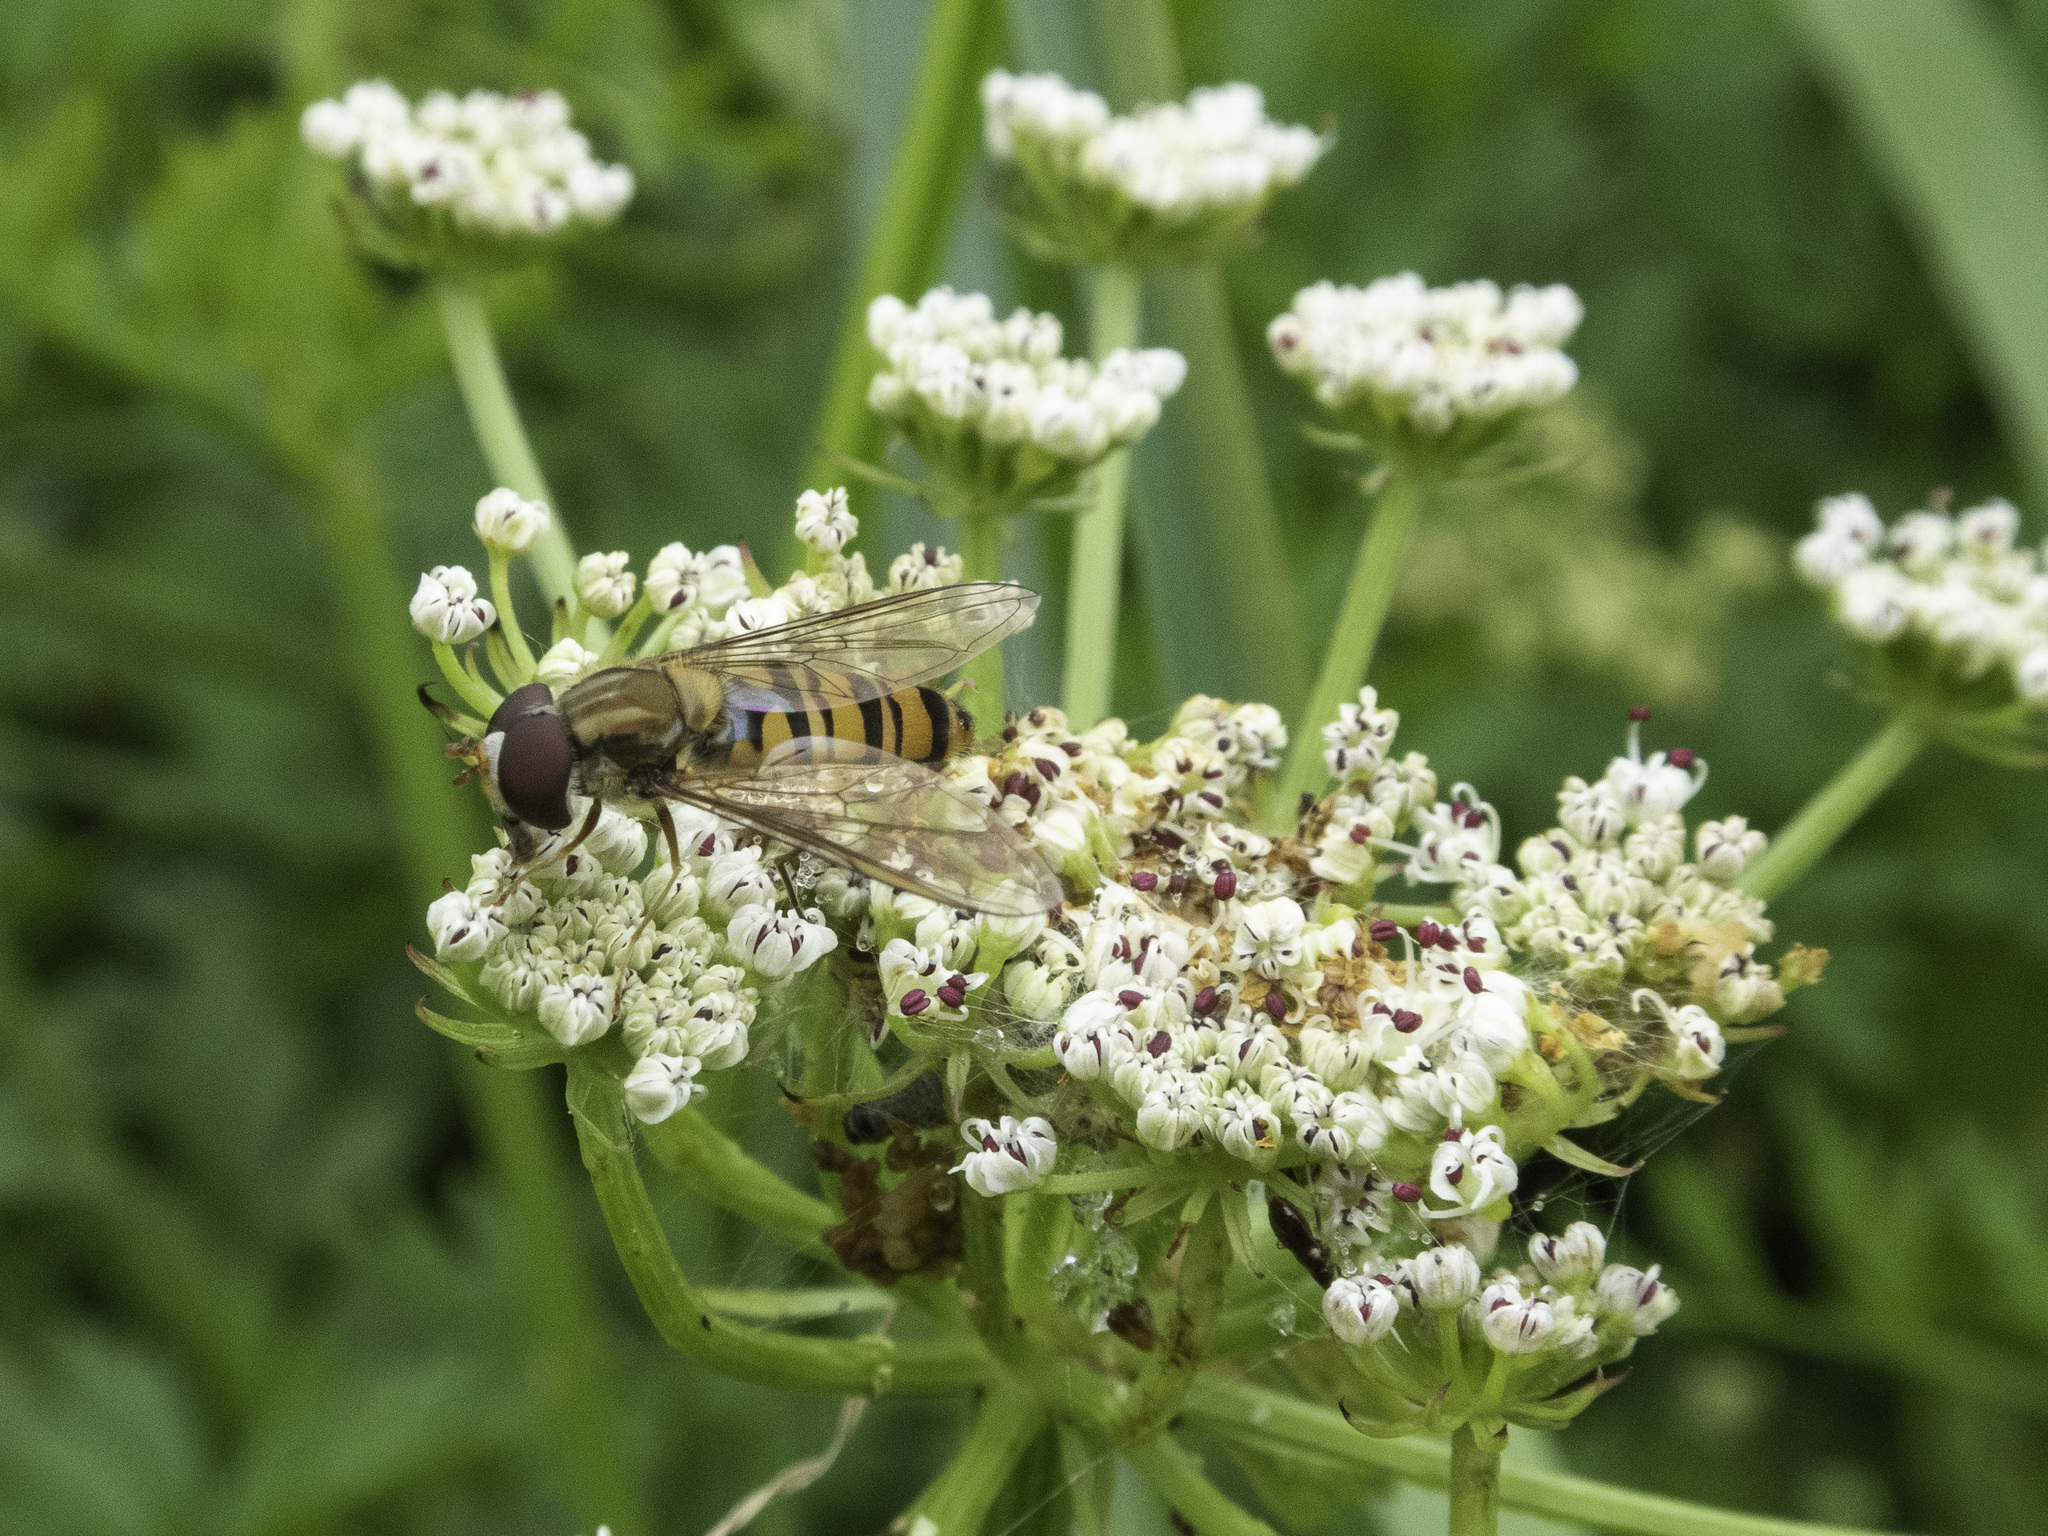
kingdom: Animalia
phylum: Arthropoda
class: Insecta
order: Diptera
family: Syrphidae
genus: Episyrphus
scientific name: Episyrphus balteatus
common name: Marmalade hoverfly
